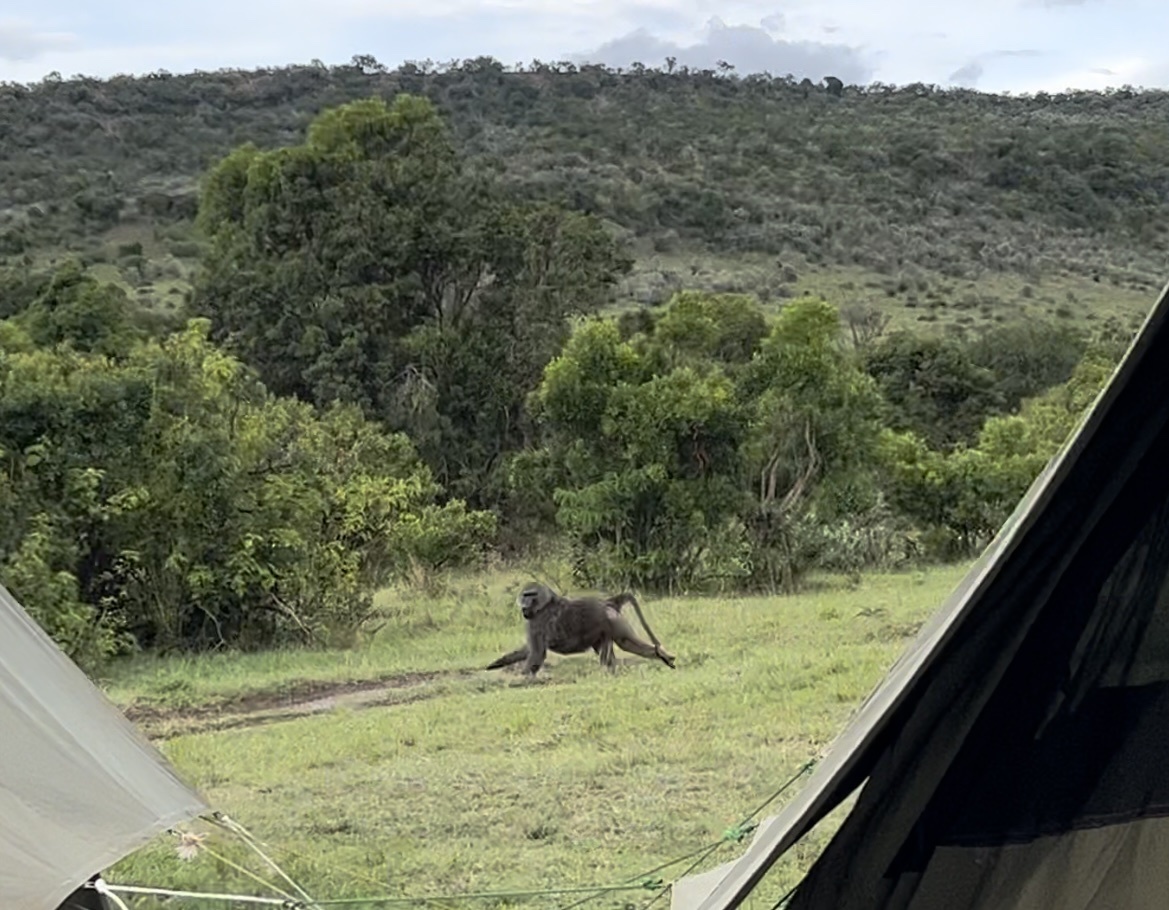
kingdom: Animalia
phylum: Chordata
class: Mammalia
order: Primates
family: Cercopithecidae
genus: Papio
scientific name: Papio anubis
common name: Olive baboon
